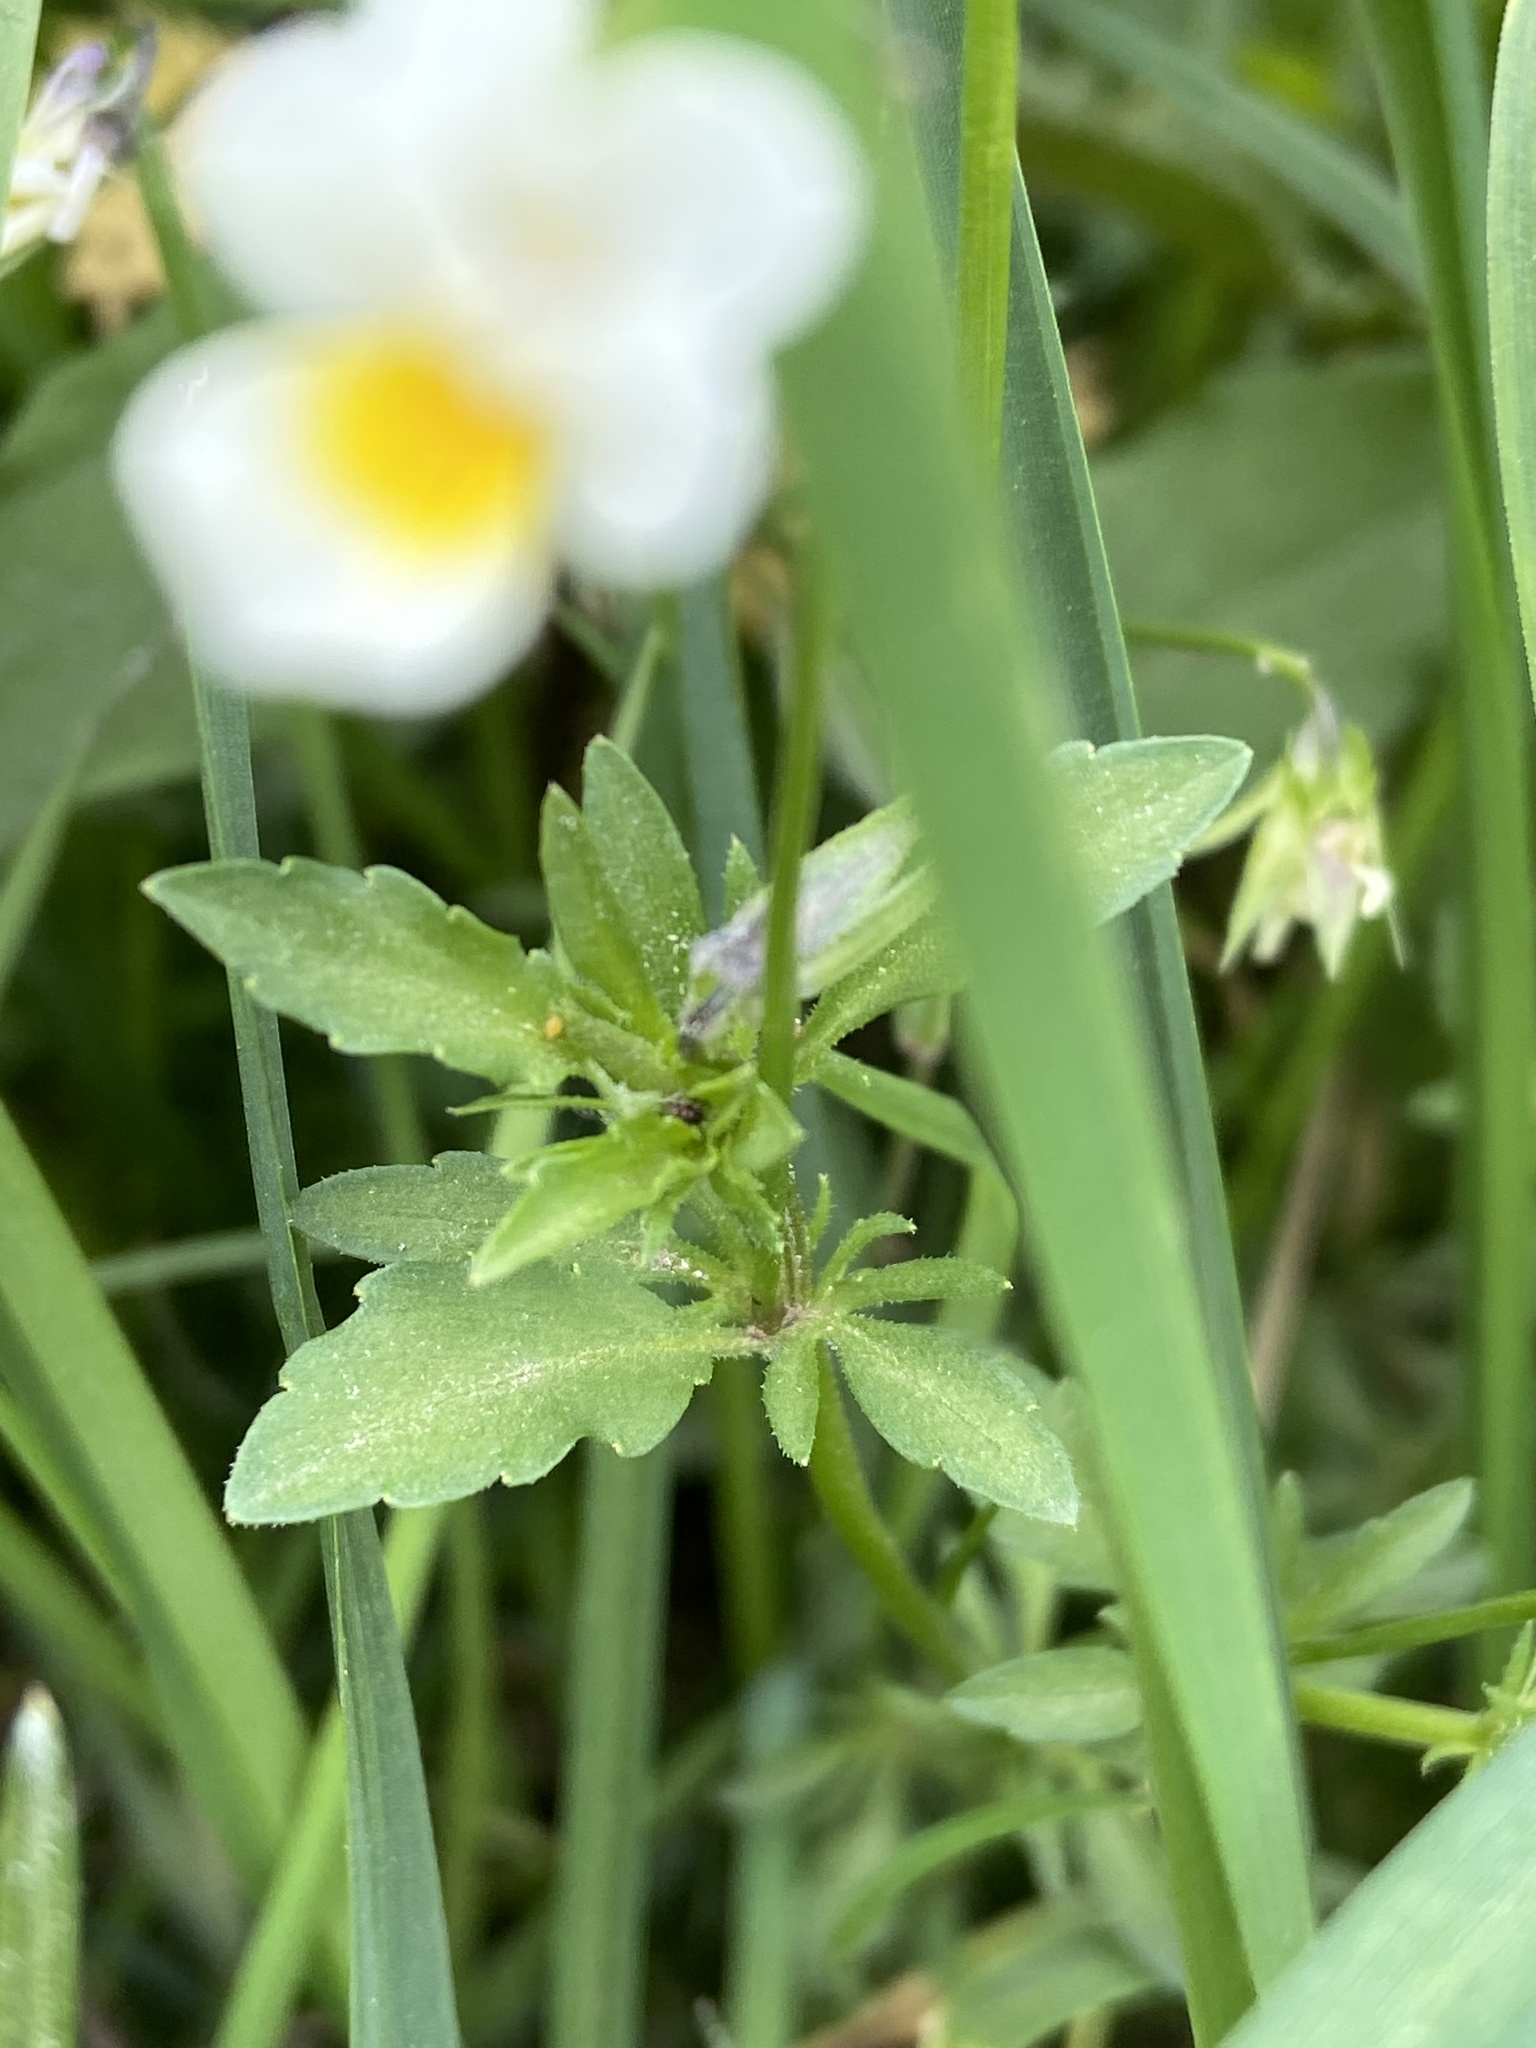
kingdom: Plantae
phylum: Tracheophyta
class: Magnoliopsida
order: Malpighiales
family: Violaceae
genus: Viola
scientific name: Viola arvensis
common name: Field pansy
